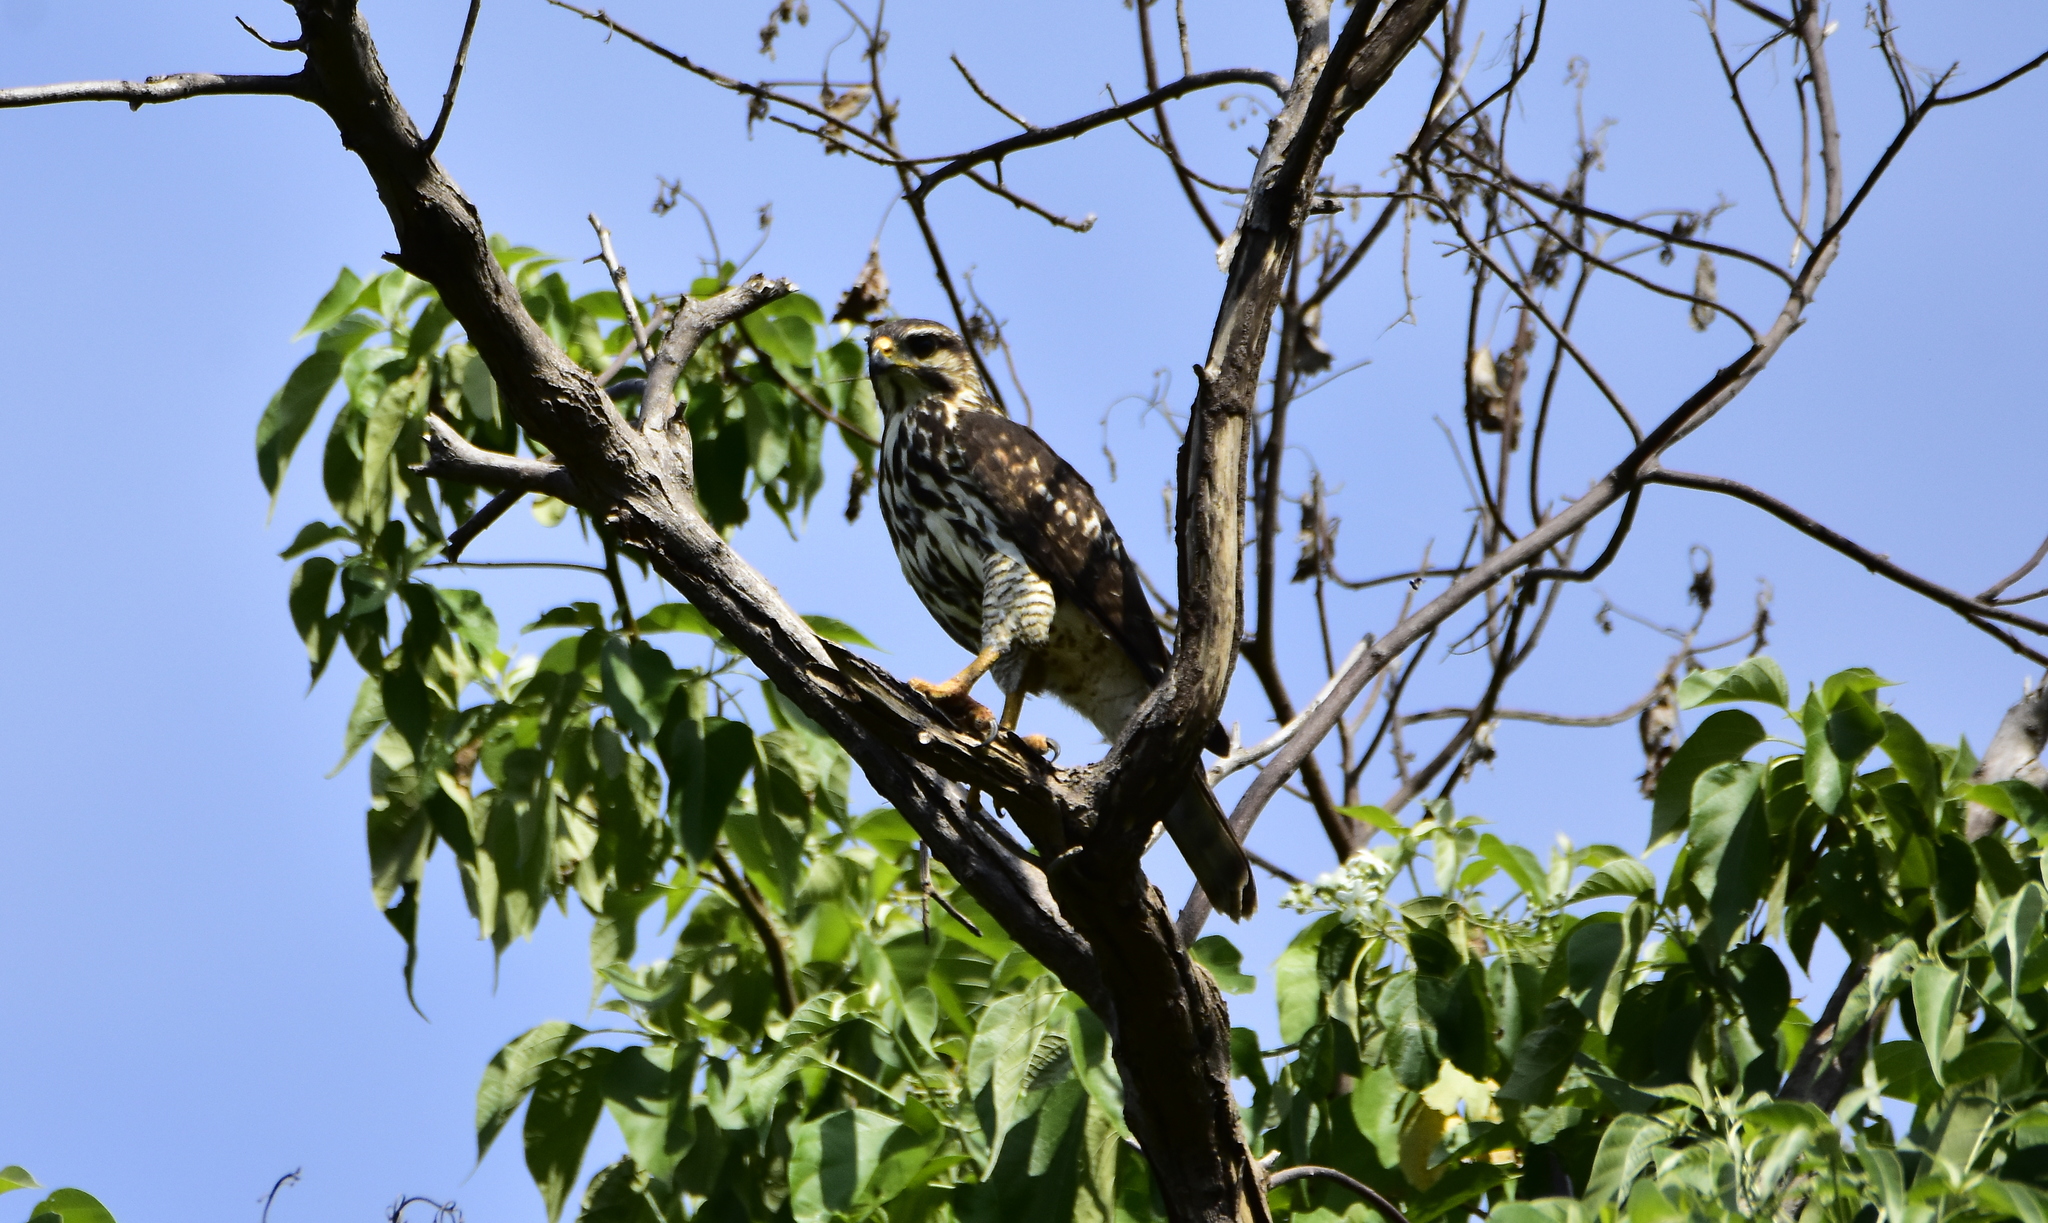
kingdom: Animalia
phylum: Chordata
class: Aves
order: Accipitriformes
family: Accipitridae
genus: Buteo
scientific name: Buteo nitidus
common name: Grey-lined hawk
